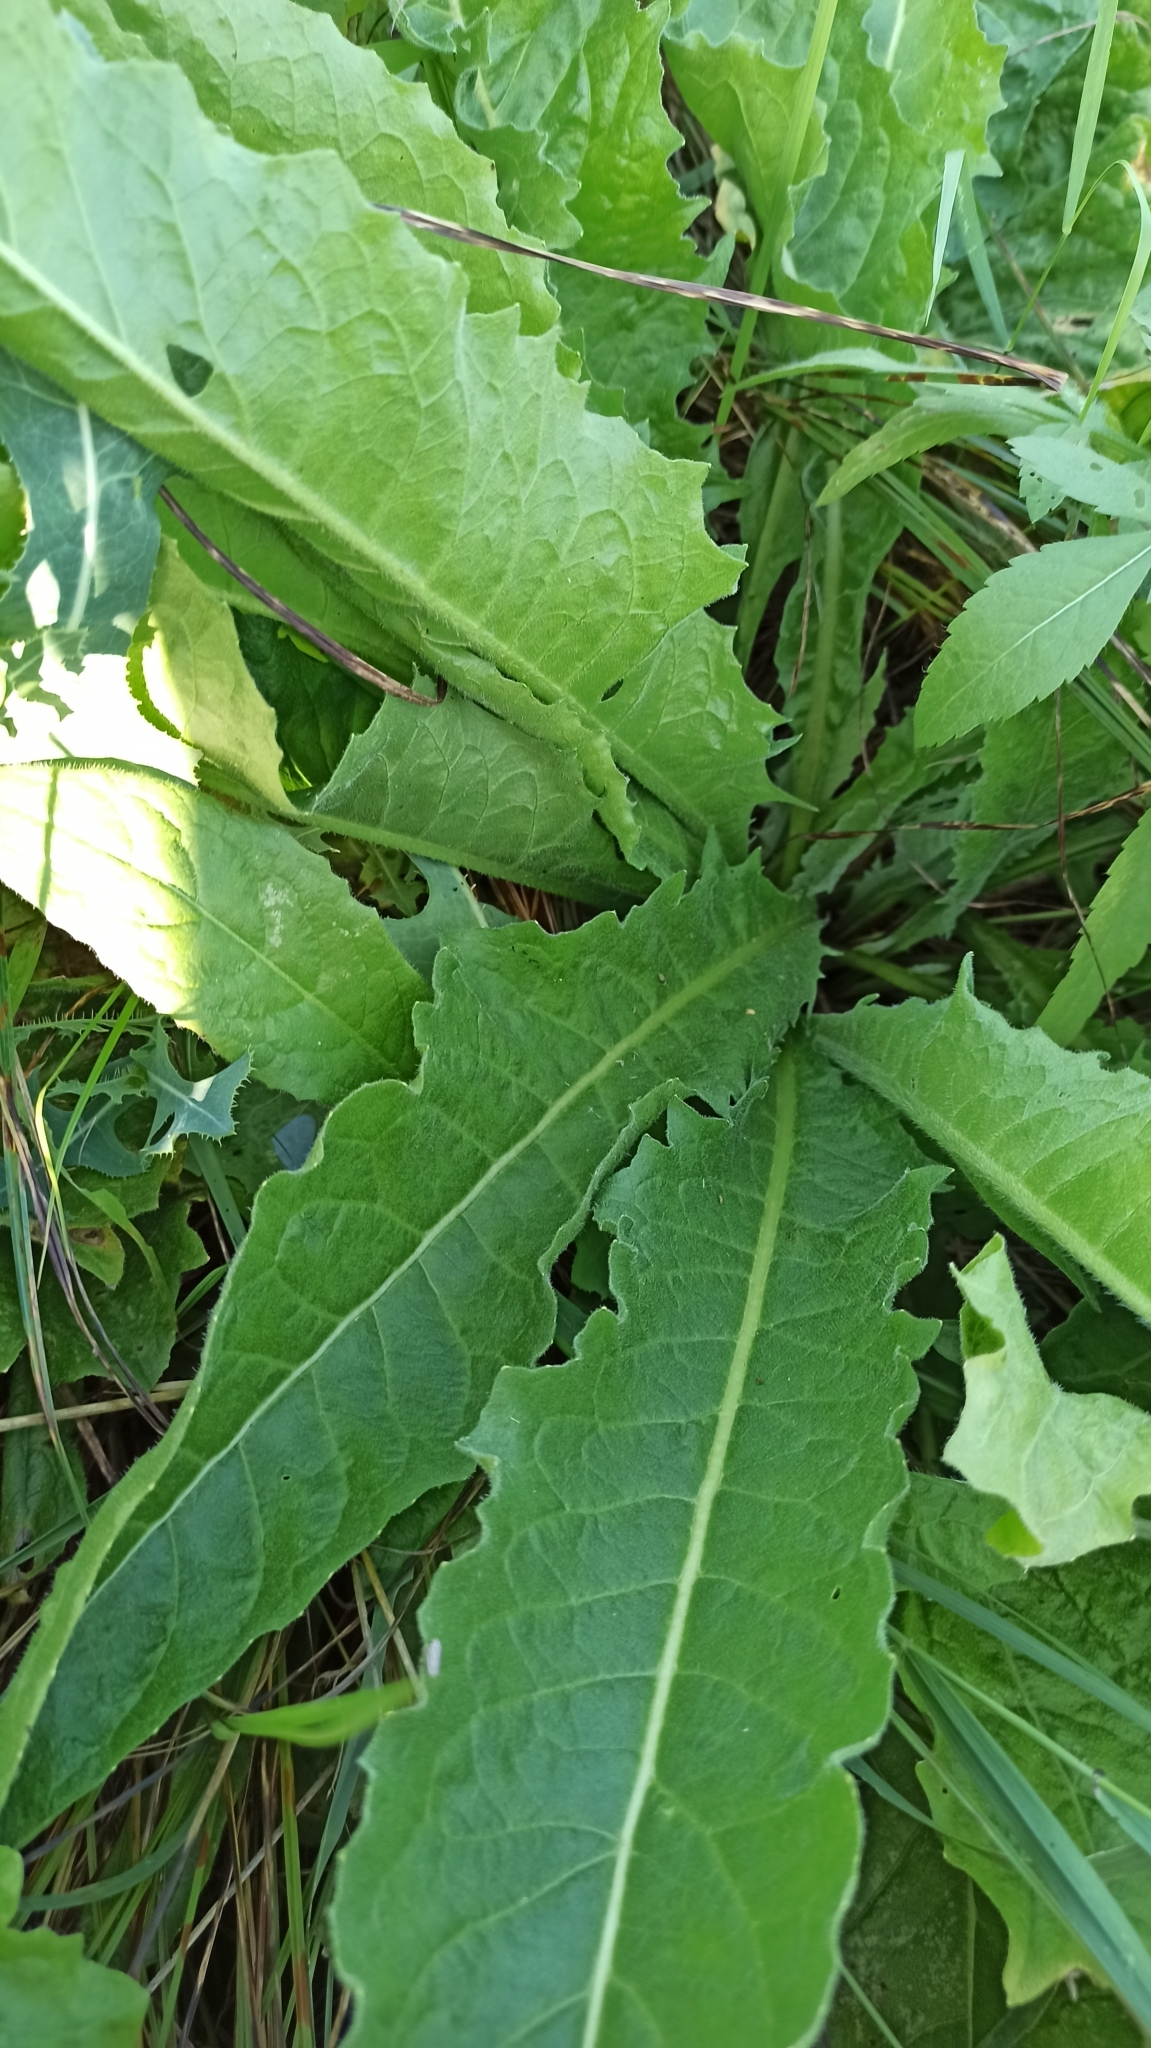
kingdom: Plantae
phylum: Tracheophyta
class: Magnoliopsida
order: Brassicales
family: Brassicaceae
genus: Bunias
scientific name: Bunias orientalis
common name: Warty-cabbage
